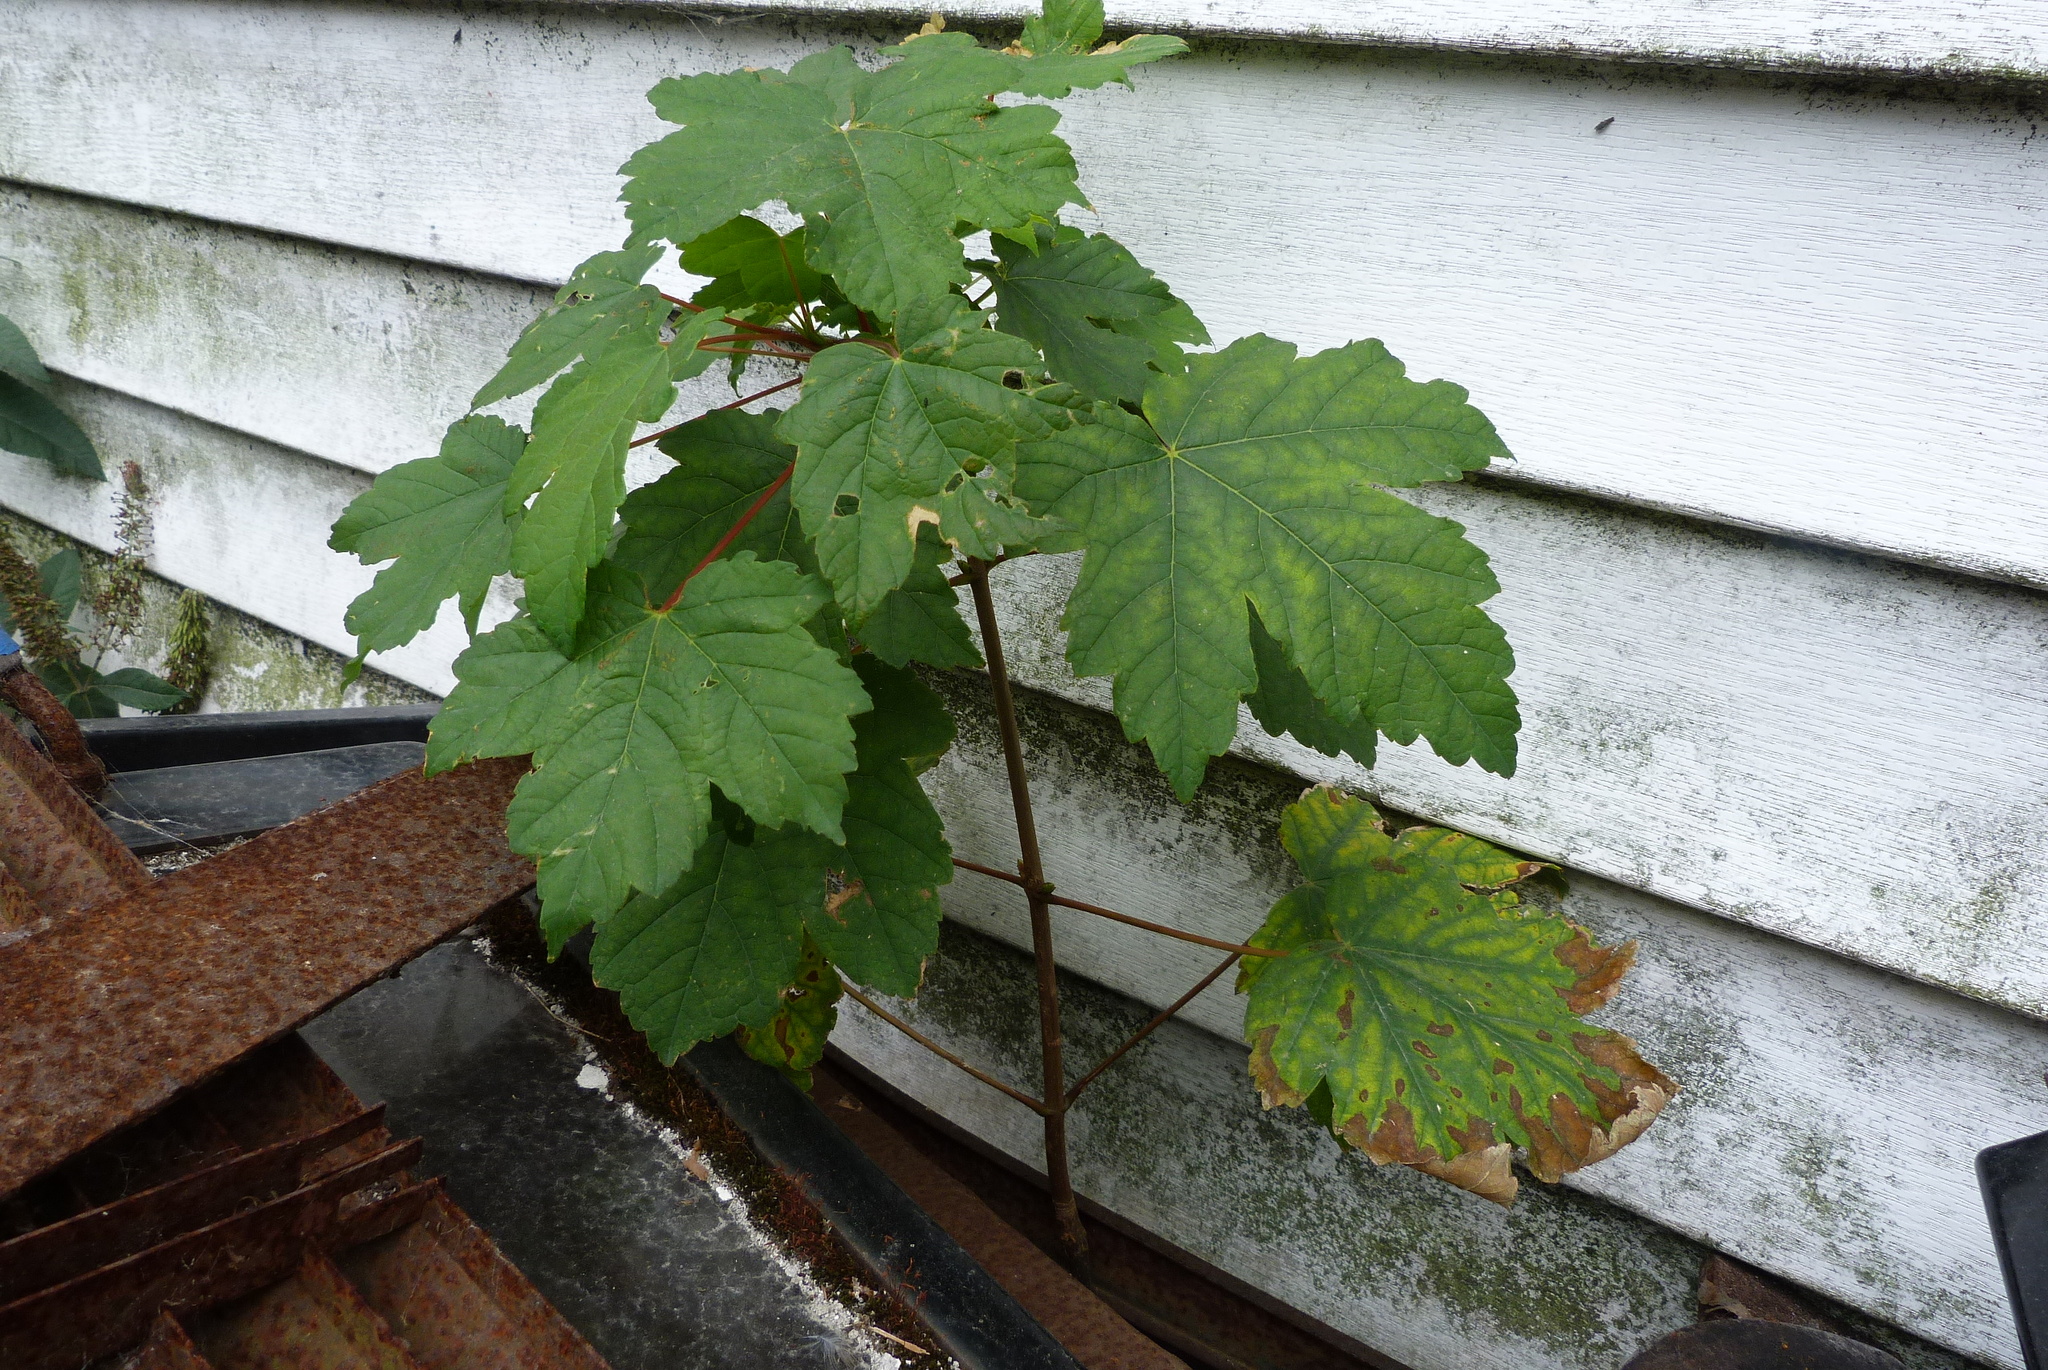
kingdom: Plantae
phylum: Tracheophyta
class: Magnoliopsida
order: Sapindales
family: Sapindaceae
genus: Acer
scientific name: Acer pseudoplatanus
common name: Sycamore
